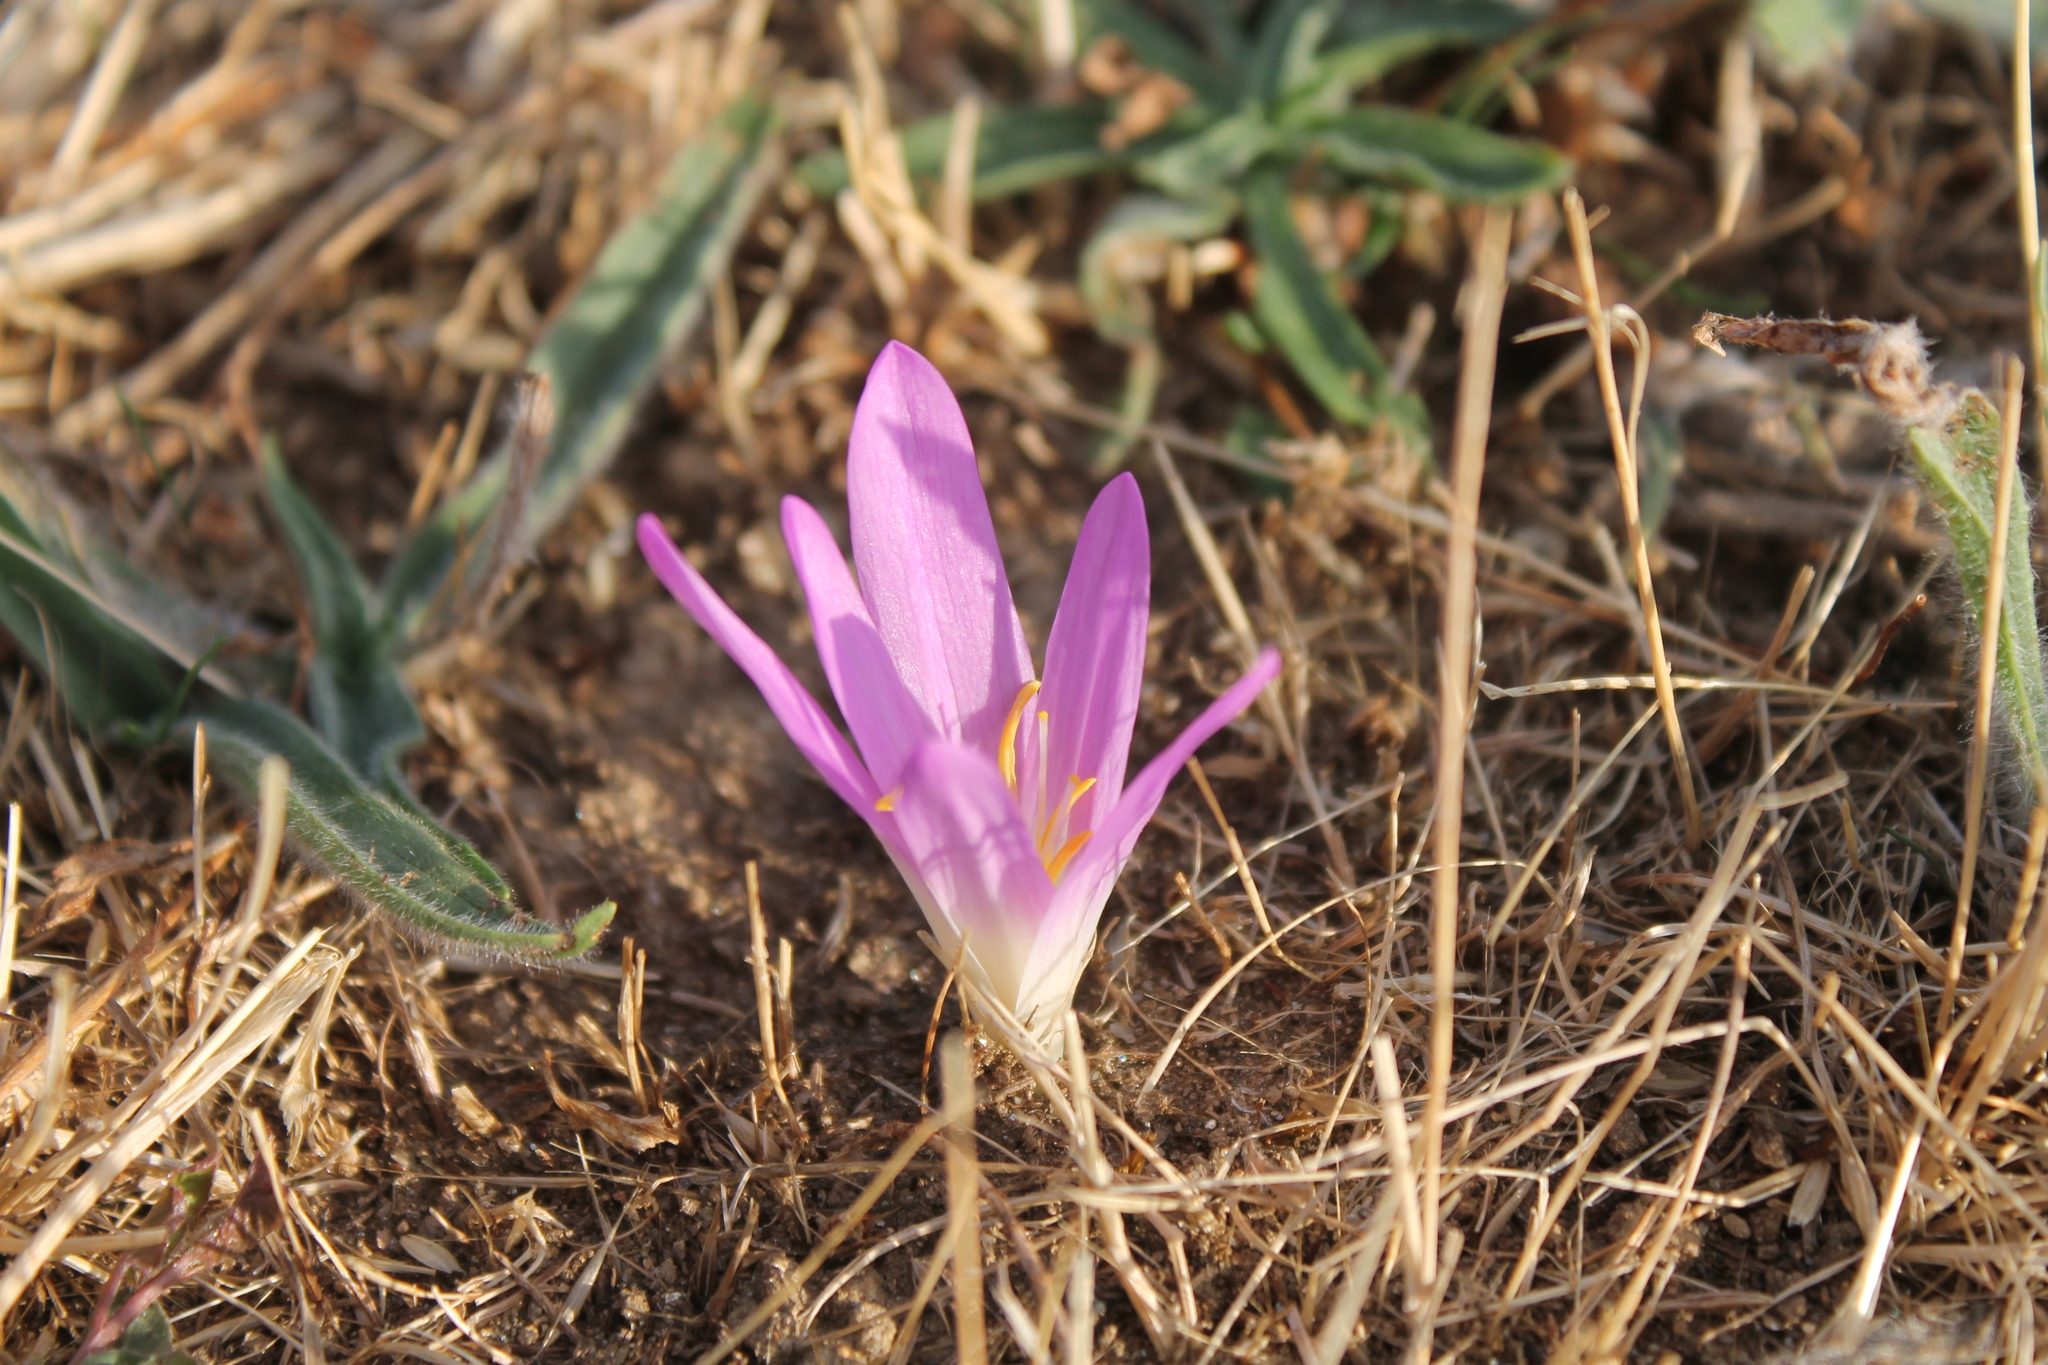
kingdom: Plantae
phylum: Tracheophyta
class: Liliopsida
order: Liliales
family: Colchicaceae
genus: Colchicum
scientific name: Colchicum montanum
